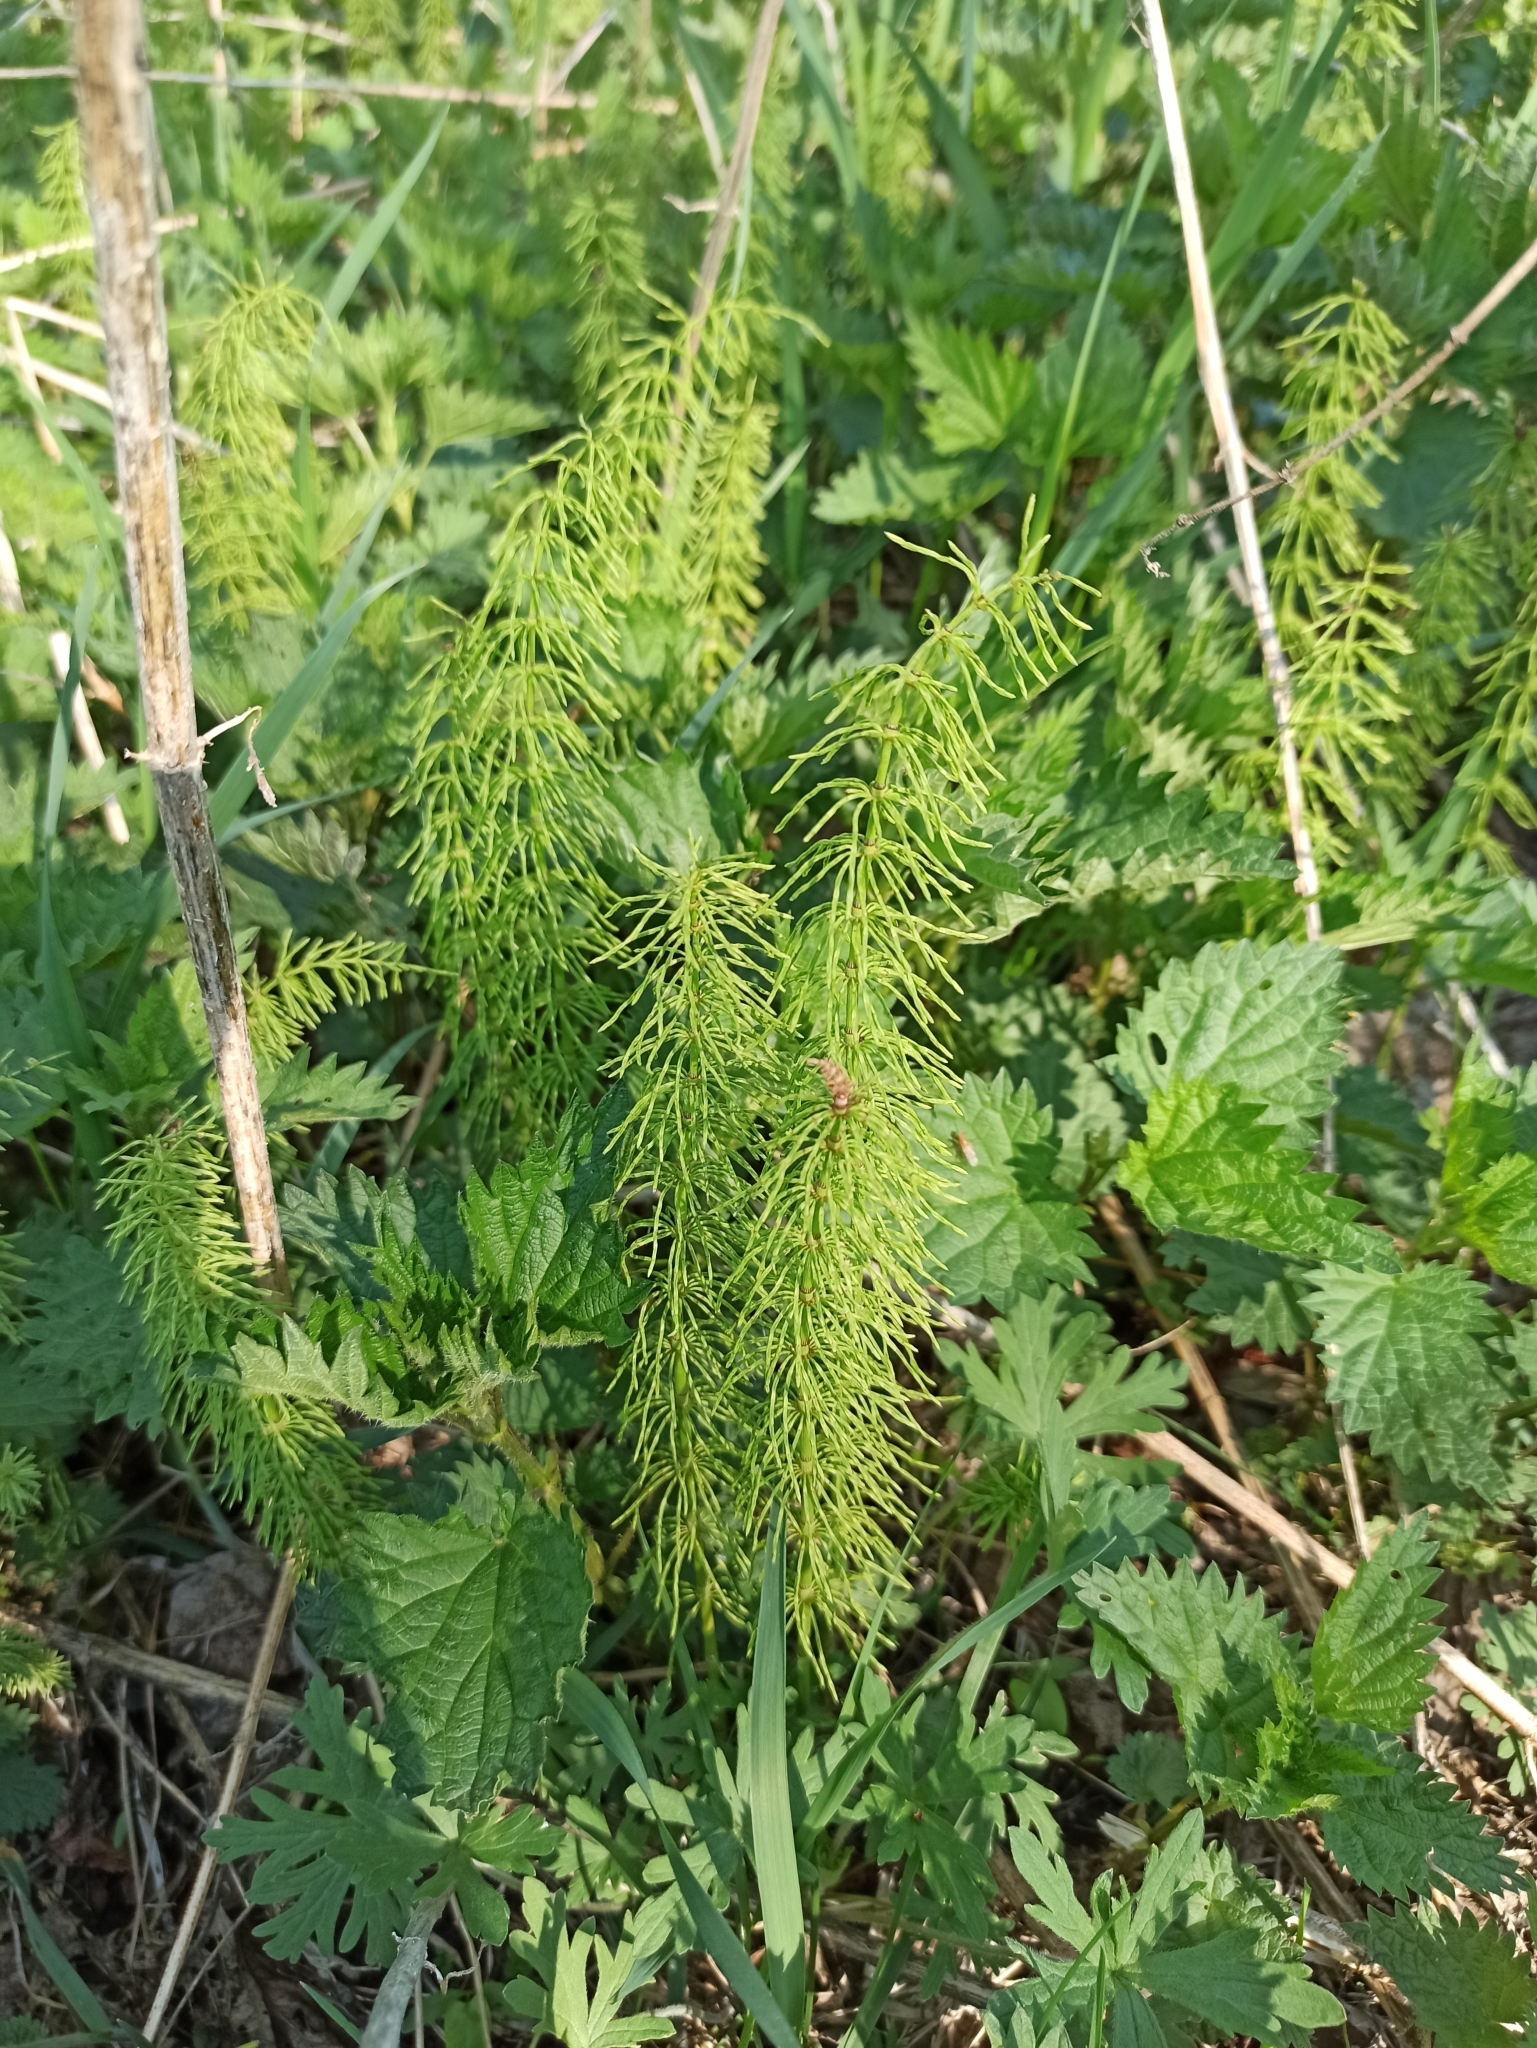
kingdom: Plantae
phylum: Tracheophyta
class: Polypodiopsida
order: Equisetales
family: Equisetaceae
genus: Equisetum
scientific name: Equisetum pratense
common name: Meadow horsetail
